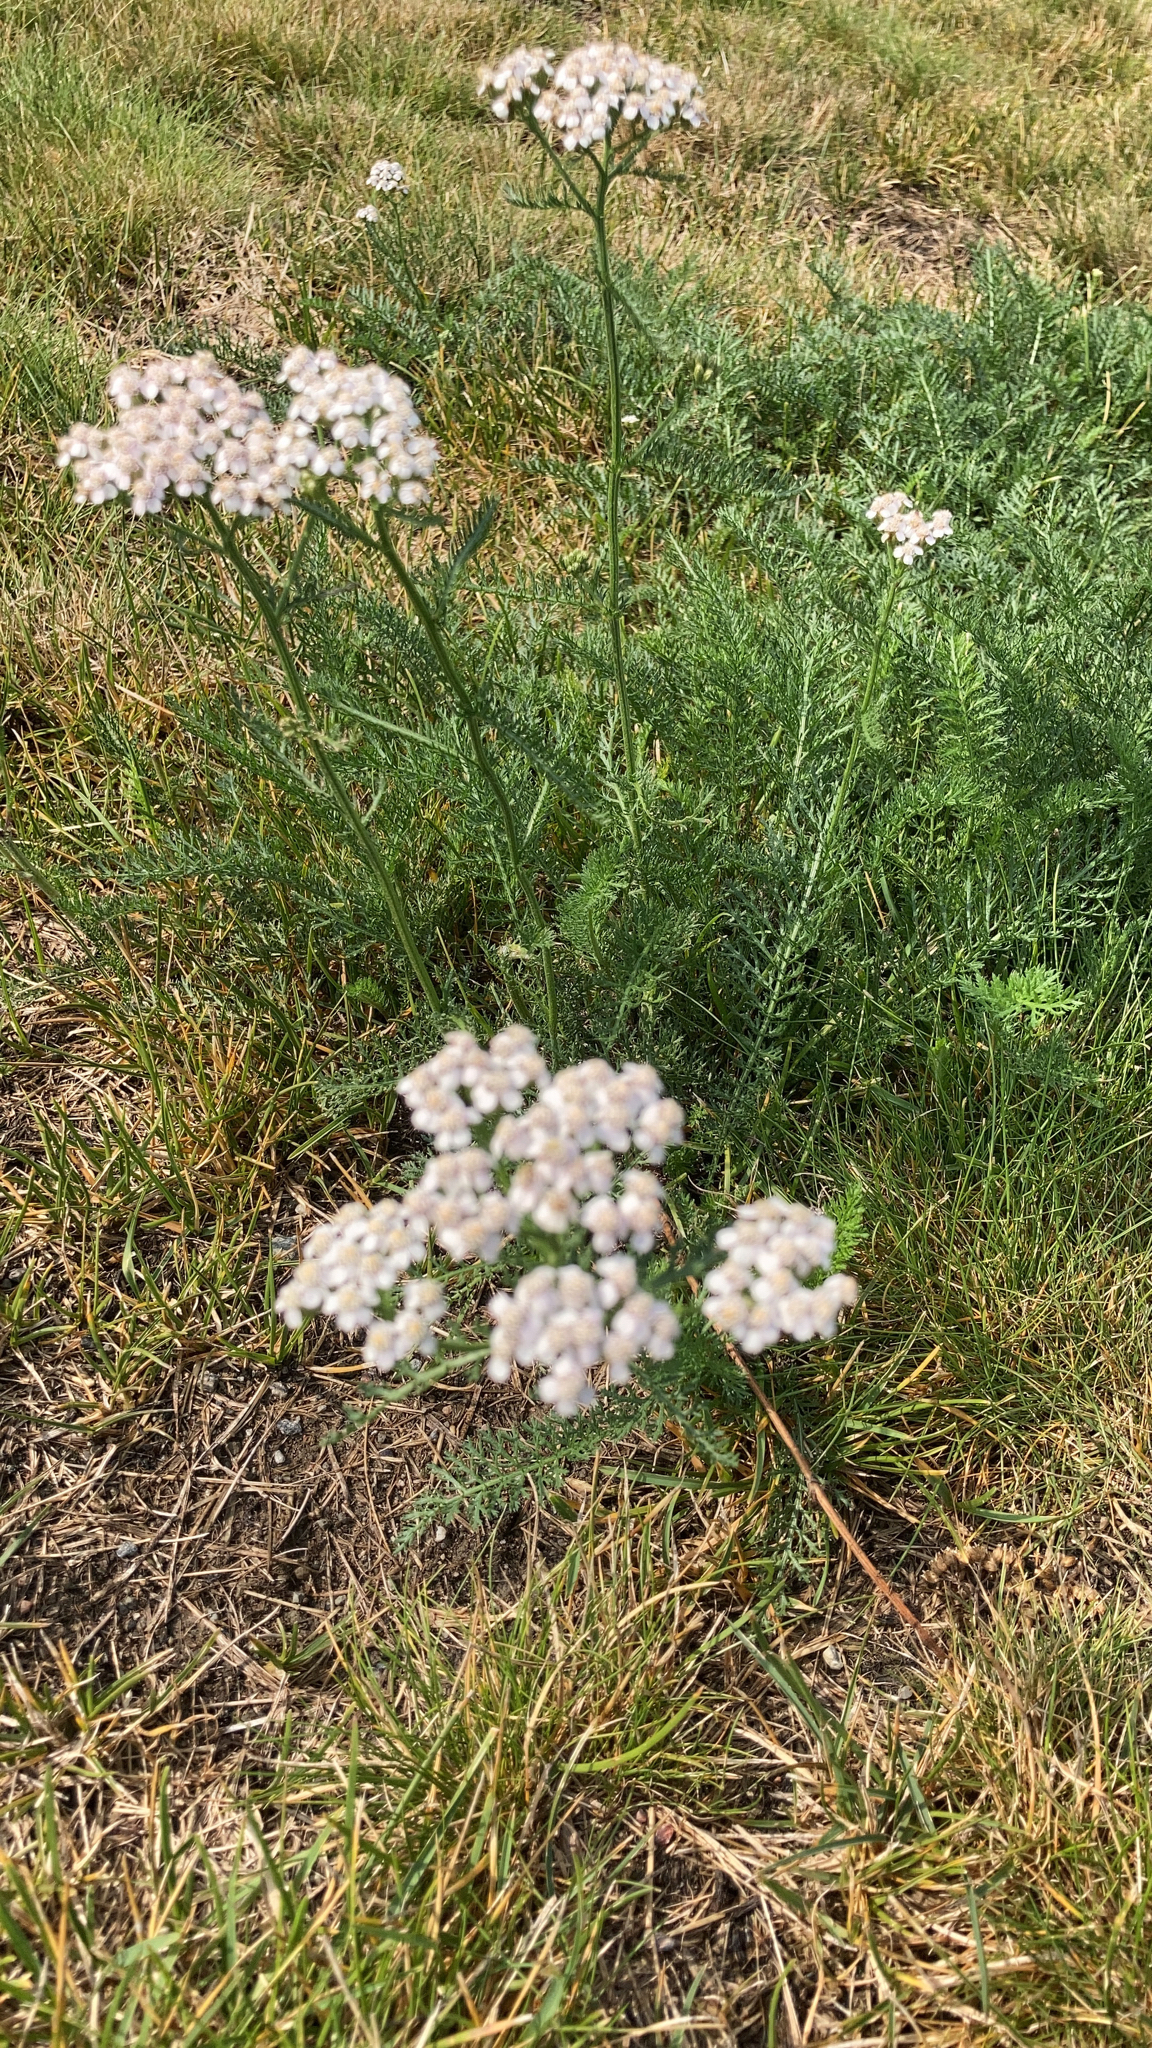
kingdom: Plantae
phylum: Tracheophyta
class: Magnoliopsida
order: Asterales
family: Asteraceae
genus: Achillea
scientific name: Achillea millefolium
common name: Yarrow
